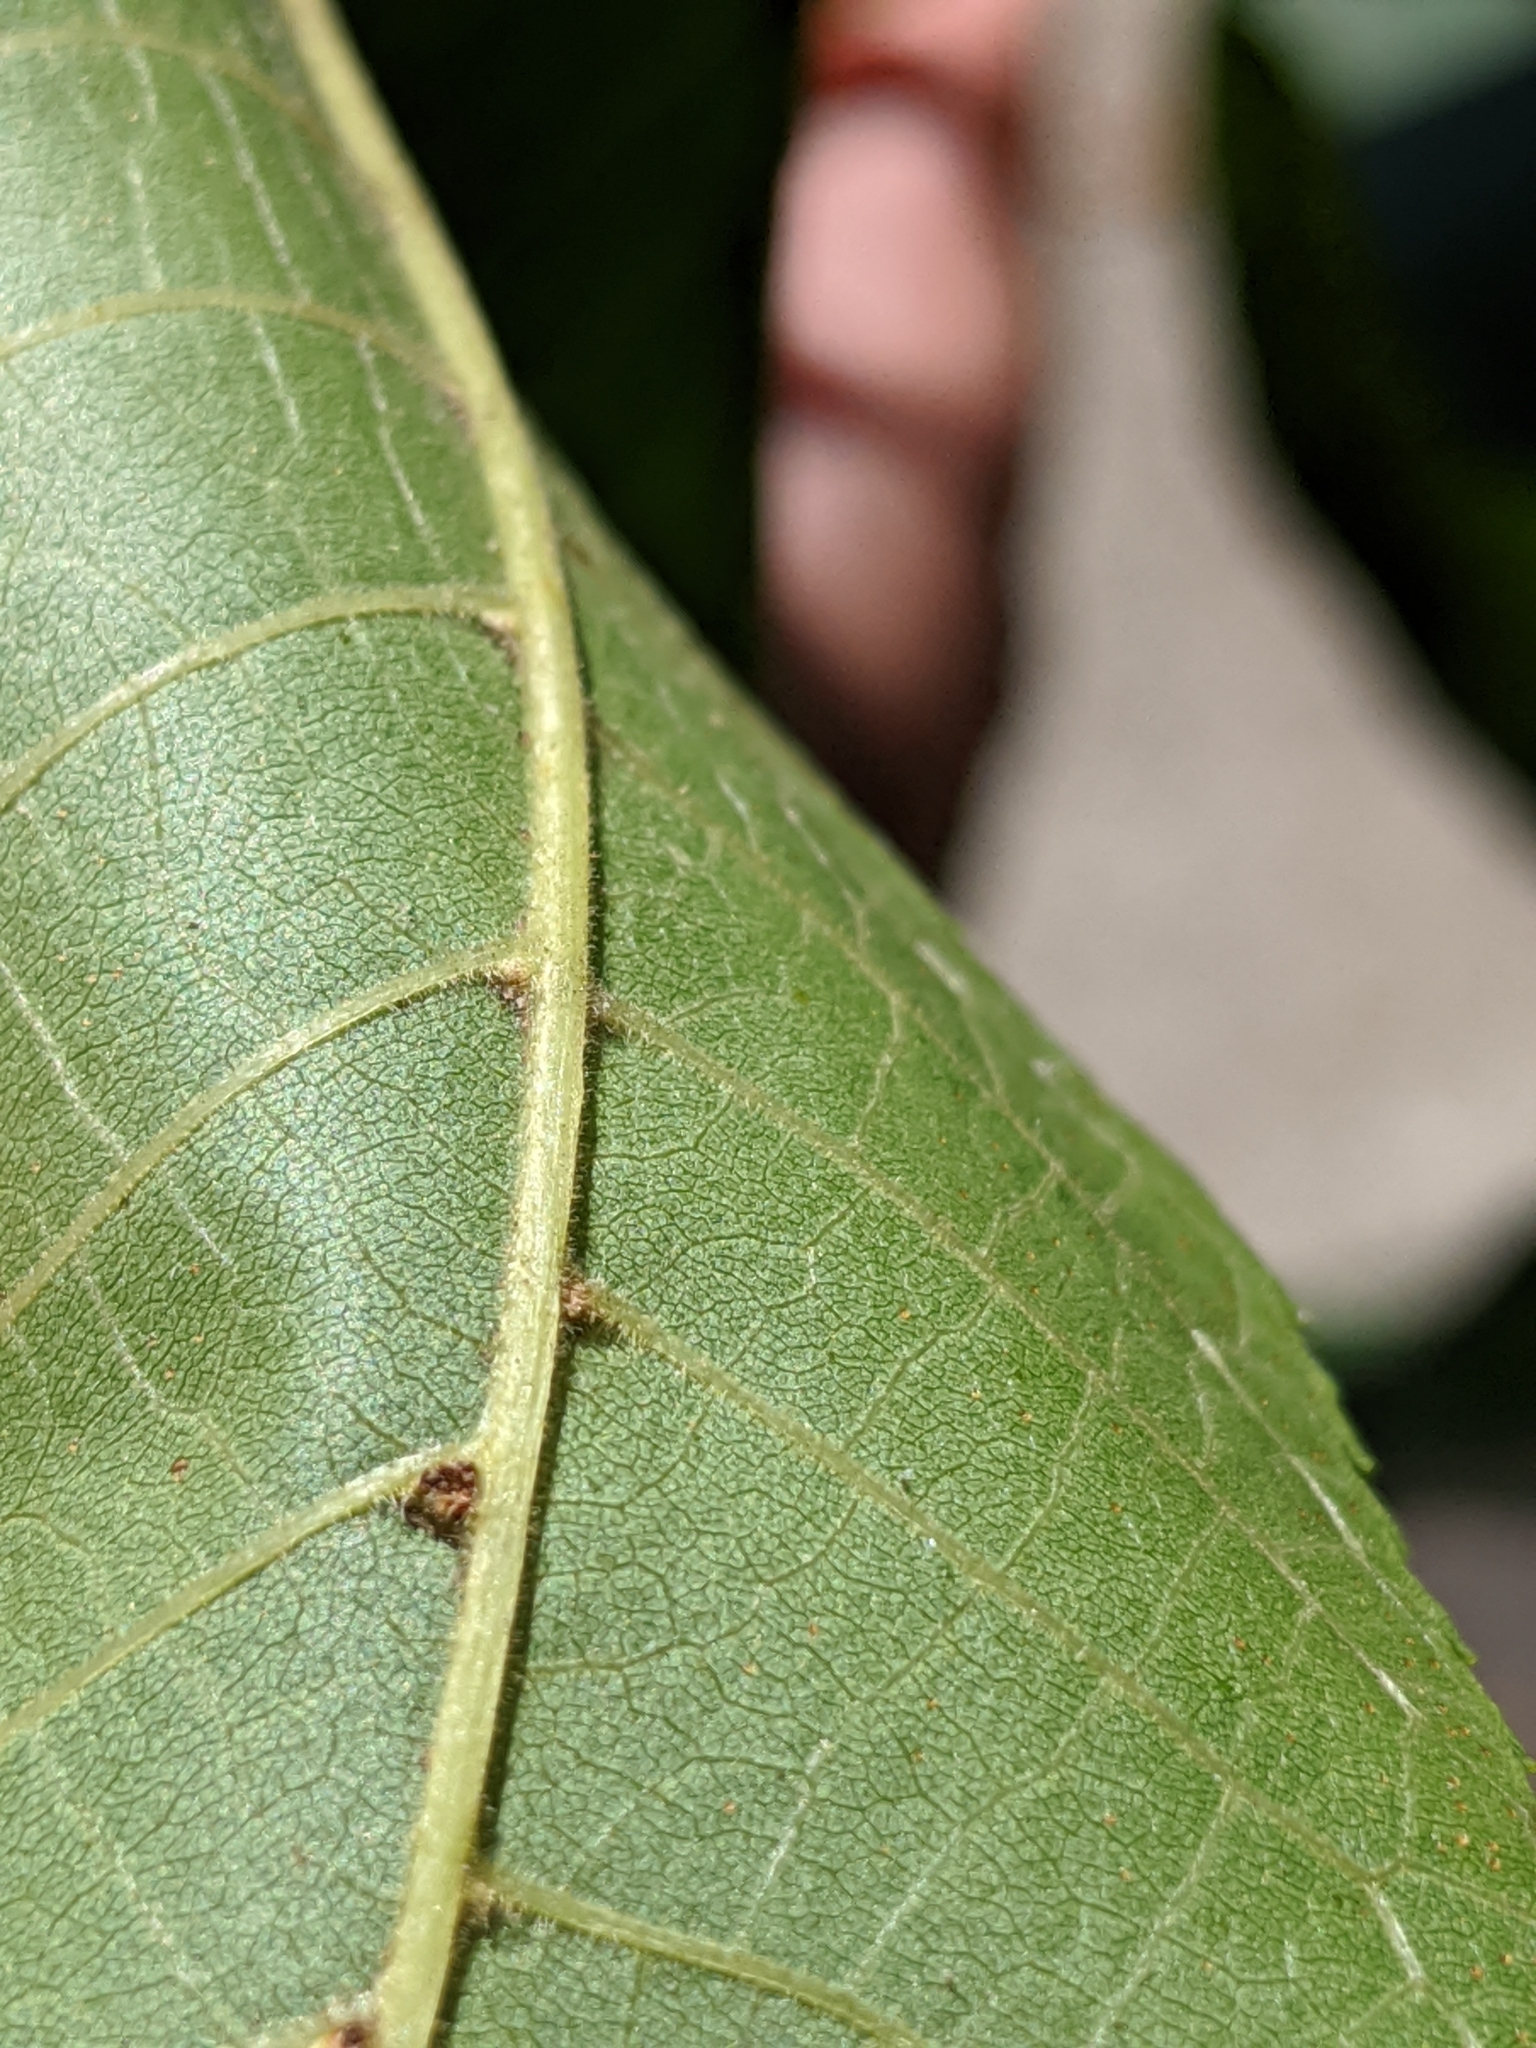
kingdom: Animalia
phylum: Arthropoda
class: Arachnida
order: Trombidiformes
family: Eriophyidae
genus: Aceria
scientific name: Aceria
